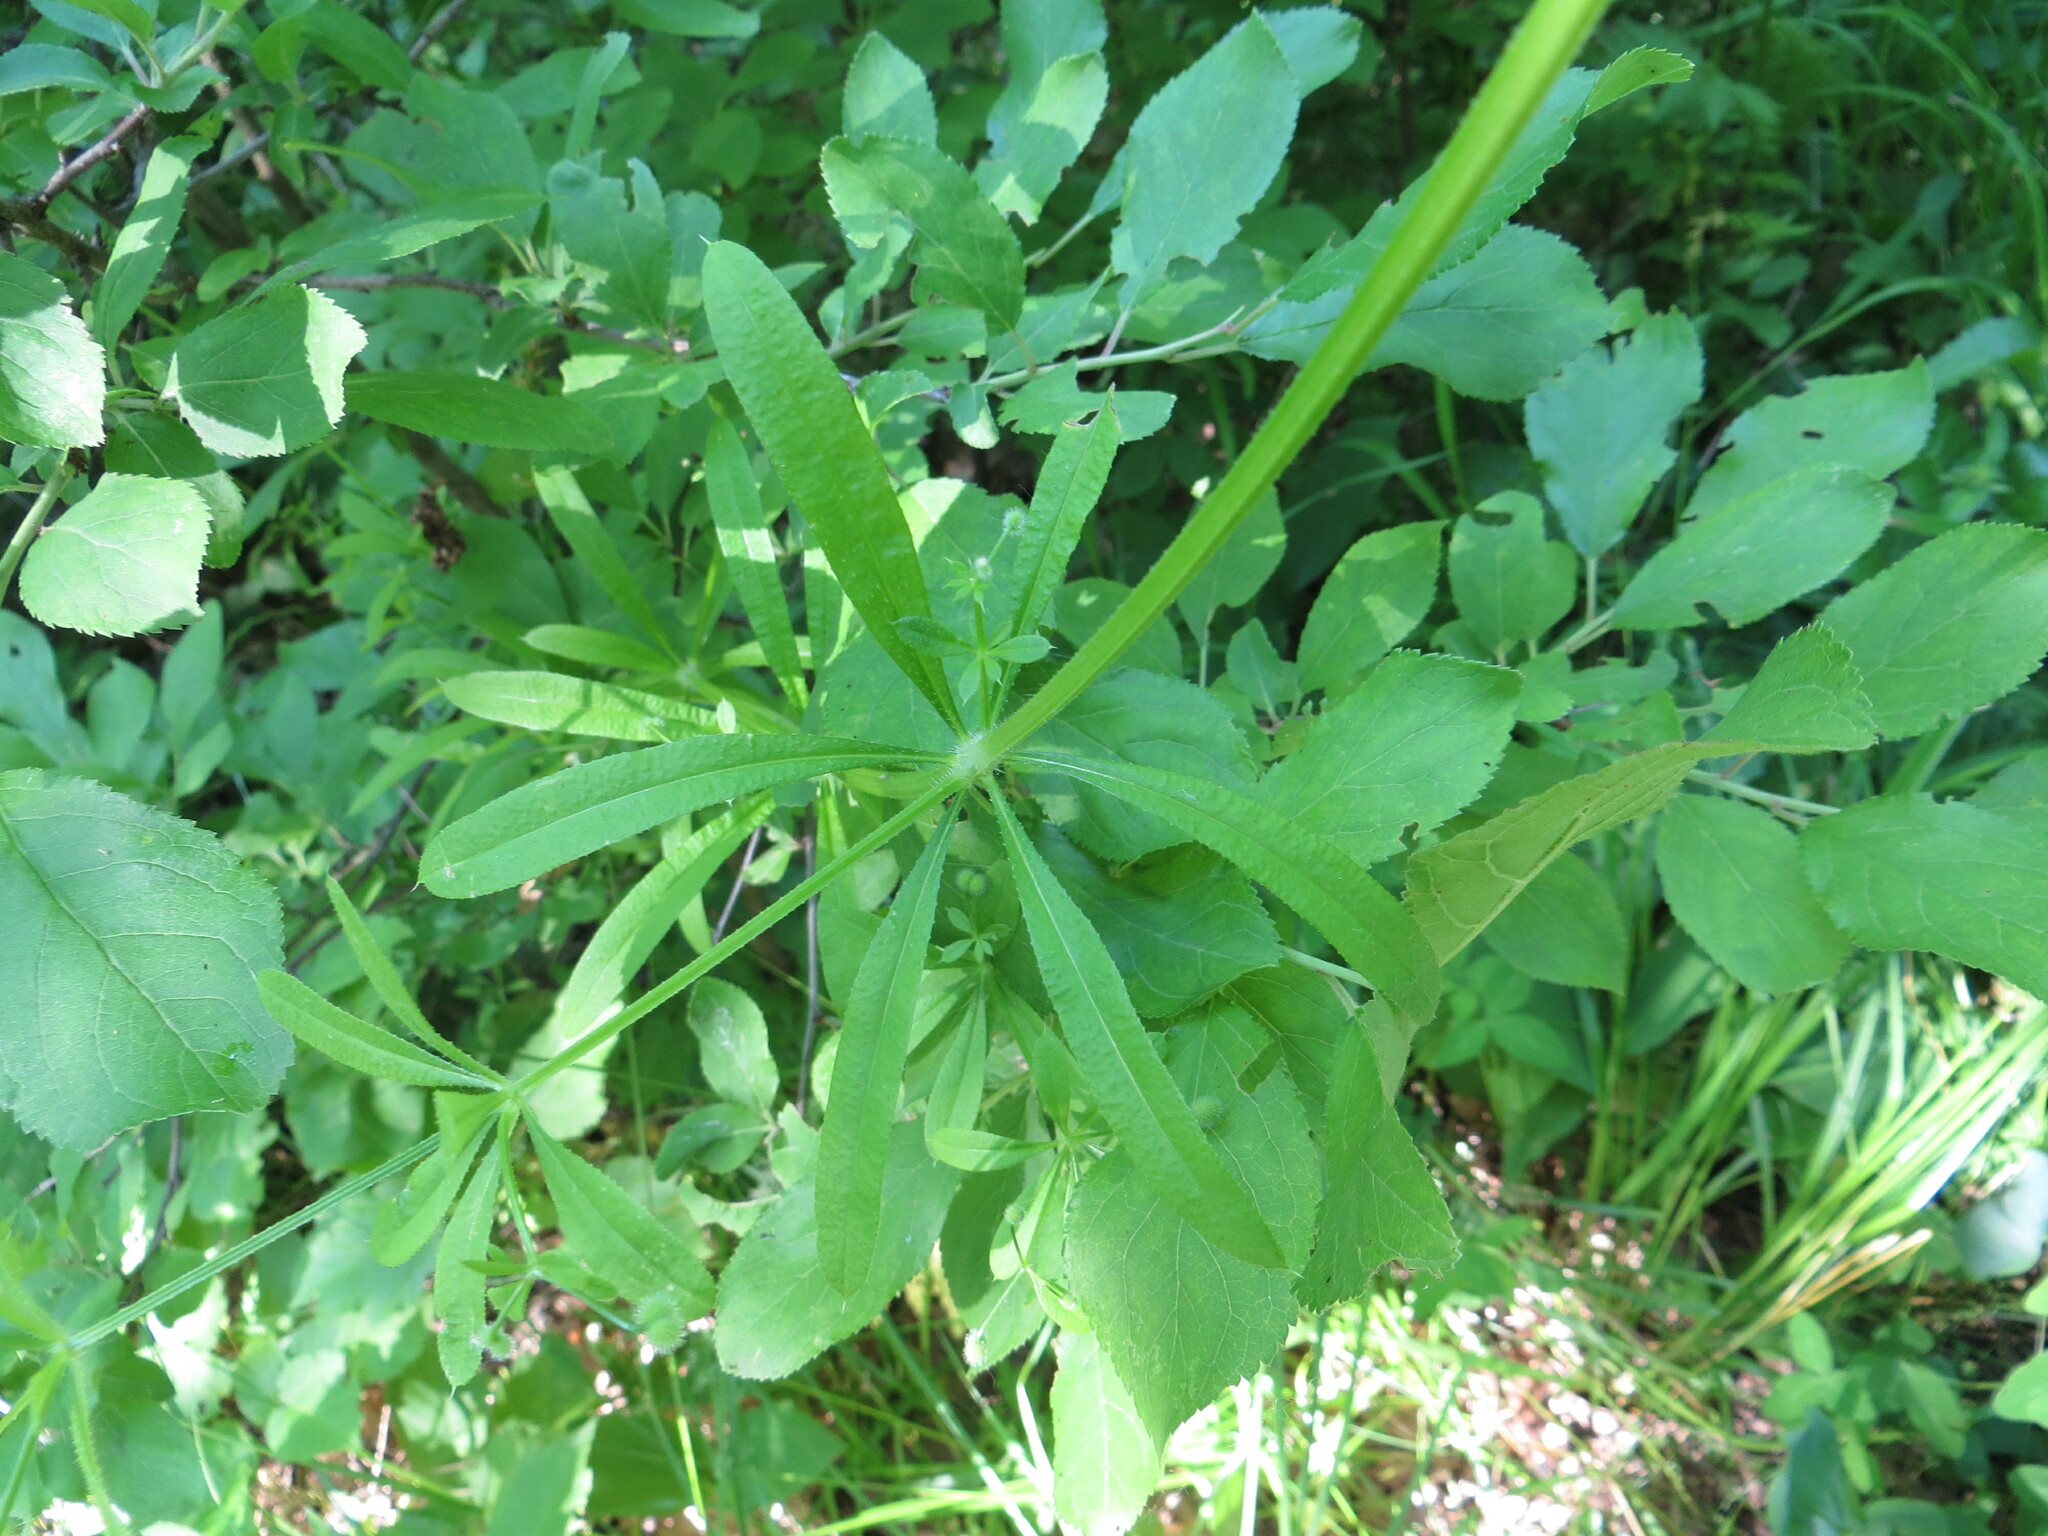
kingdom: Plantae
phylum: Tracheophyta
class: Magnoliopsida
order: Gentianales
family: Rubiaceae
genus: Galium
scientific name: Galium aparine
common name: Cleavers
